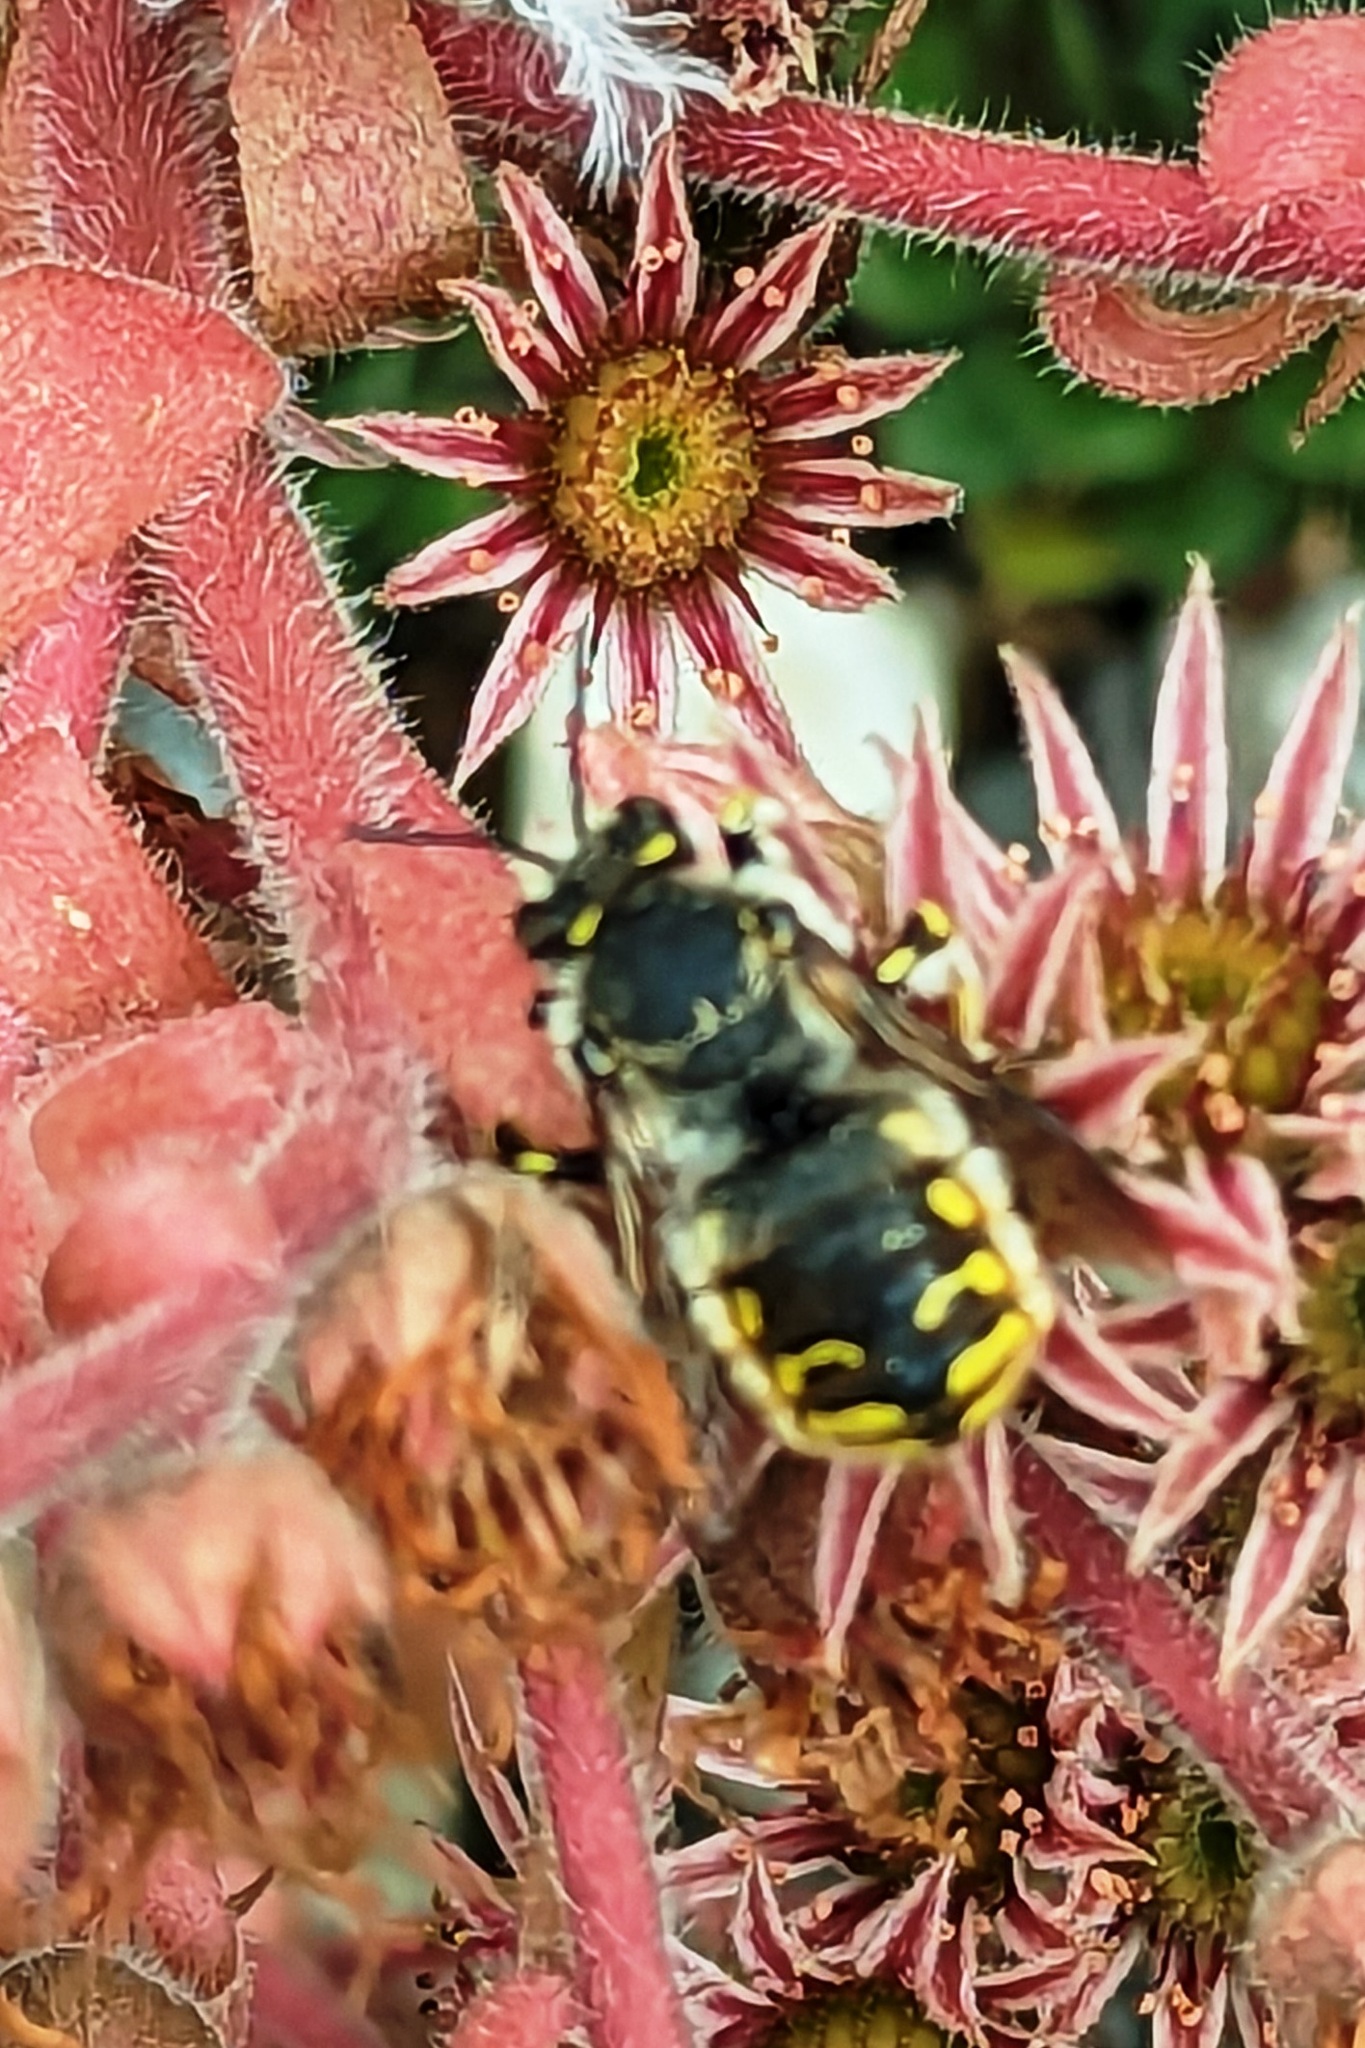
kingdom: Animalia
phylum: Arthropoda
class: Insecta
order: Hymenoptera
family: Megachilidae
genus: Anthidium
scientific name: Anthidium manicatum
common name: Wool carder bee
